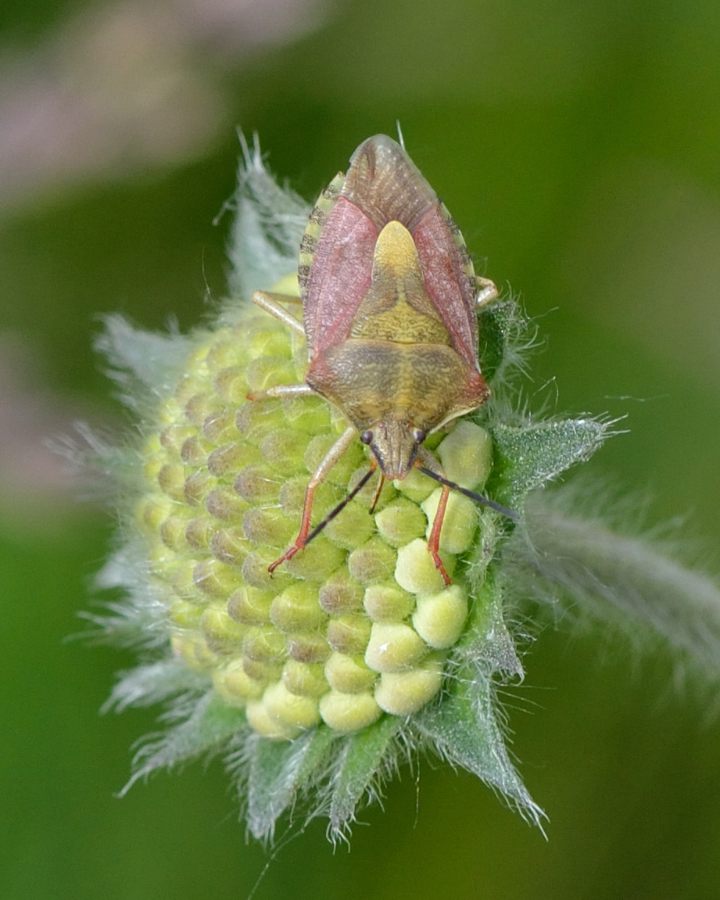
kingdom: Animalia
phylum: Arthropoda
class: Insecta
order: Hemiptera
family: Pentatomidae
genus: Carpocoris
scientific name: Carpocoris purpureipennis
